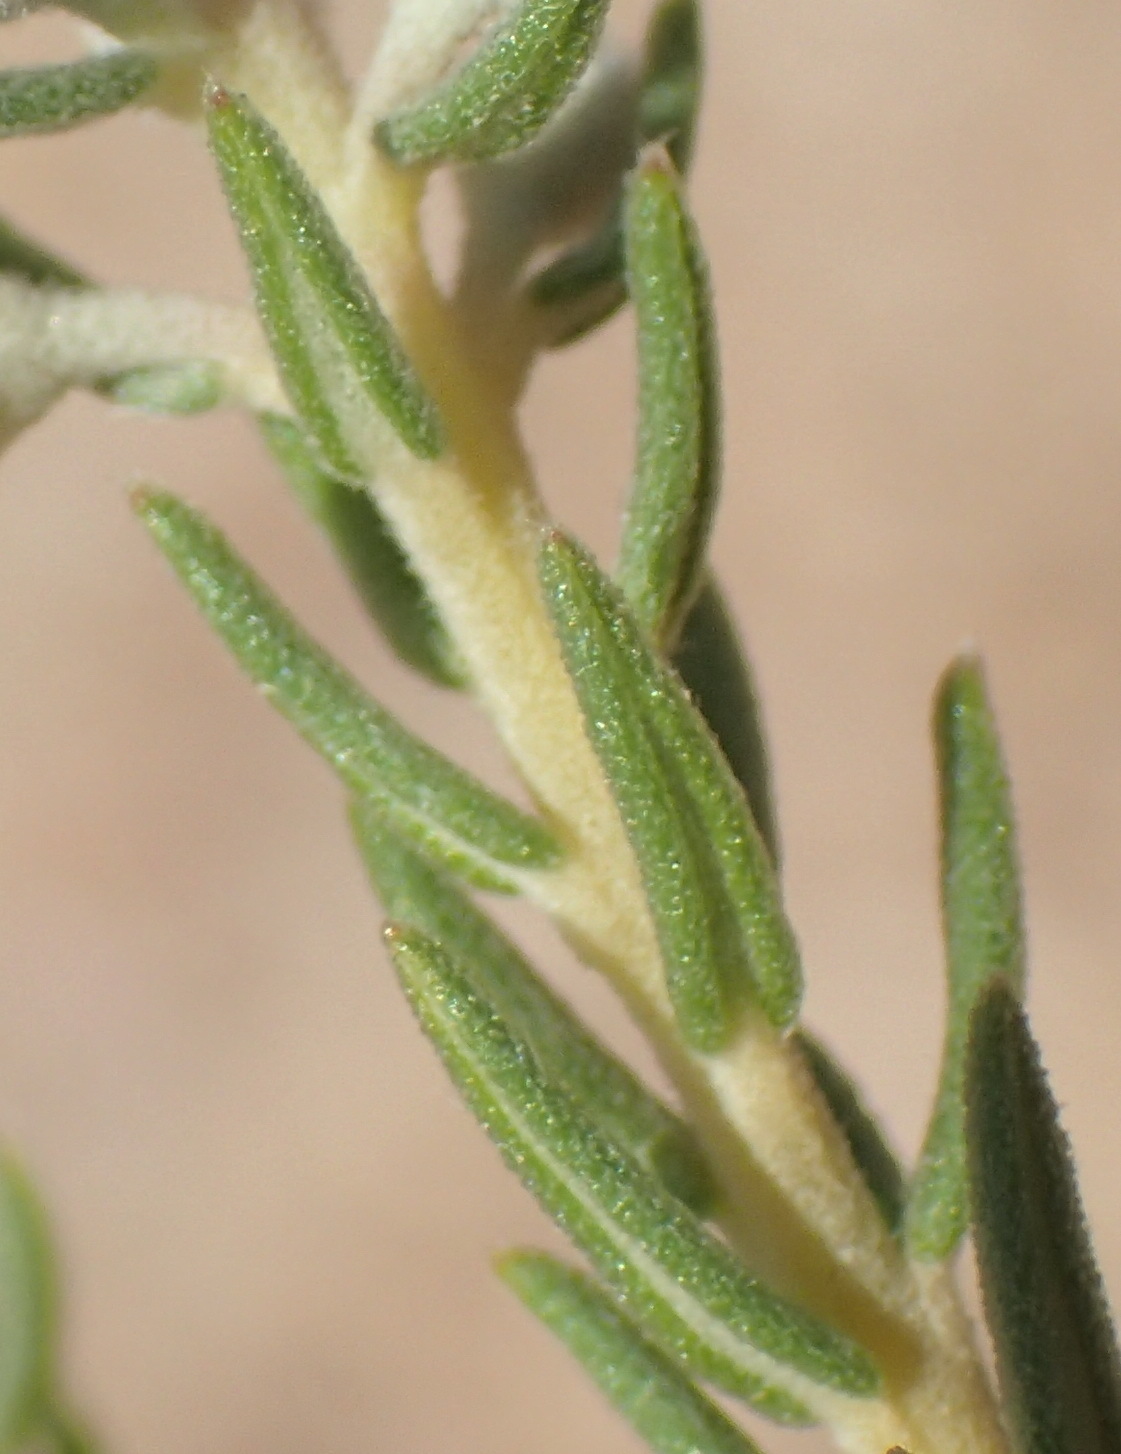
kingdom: Plantae
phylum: Tracheophyta
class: Magnoliopsida
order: Rosales
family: Rhamnaceae
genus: Phylica
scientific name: Phylica purpurea
